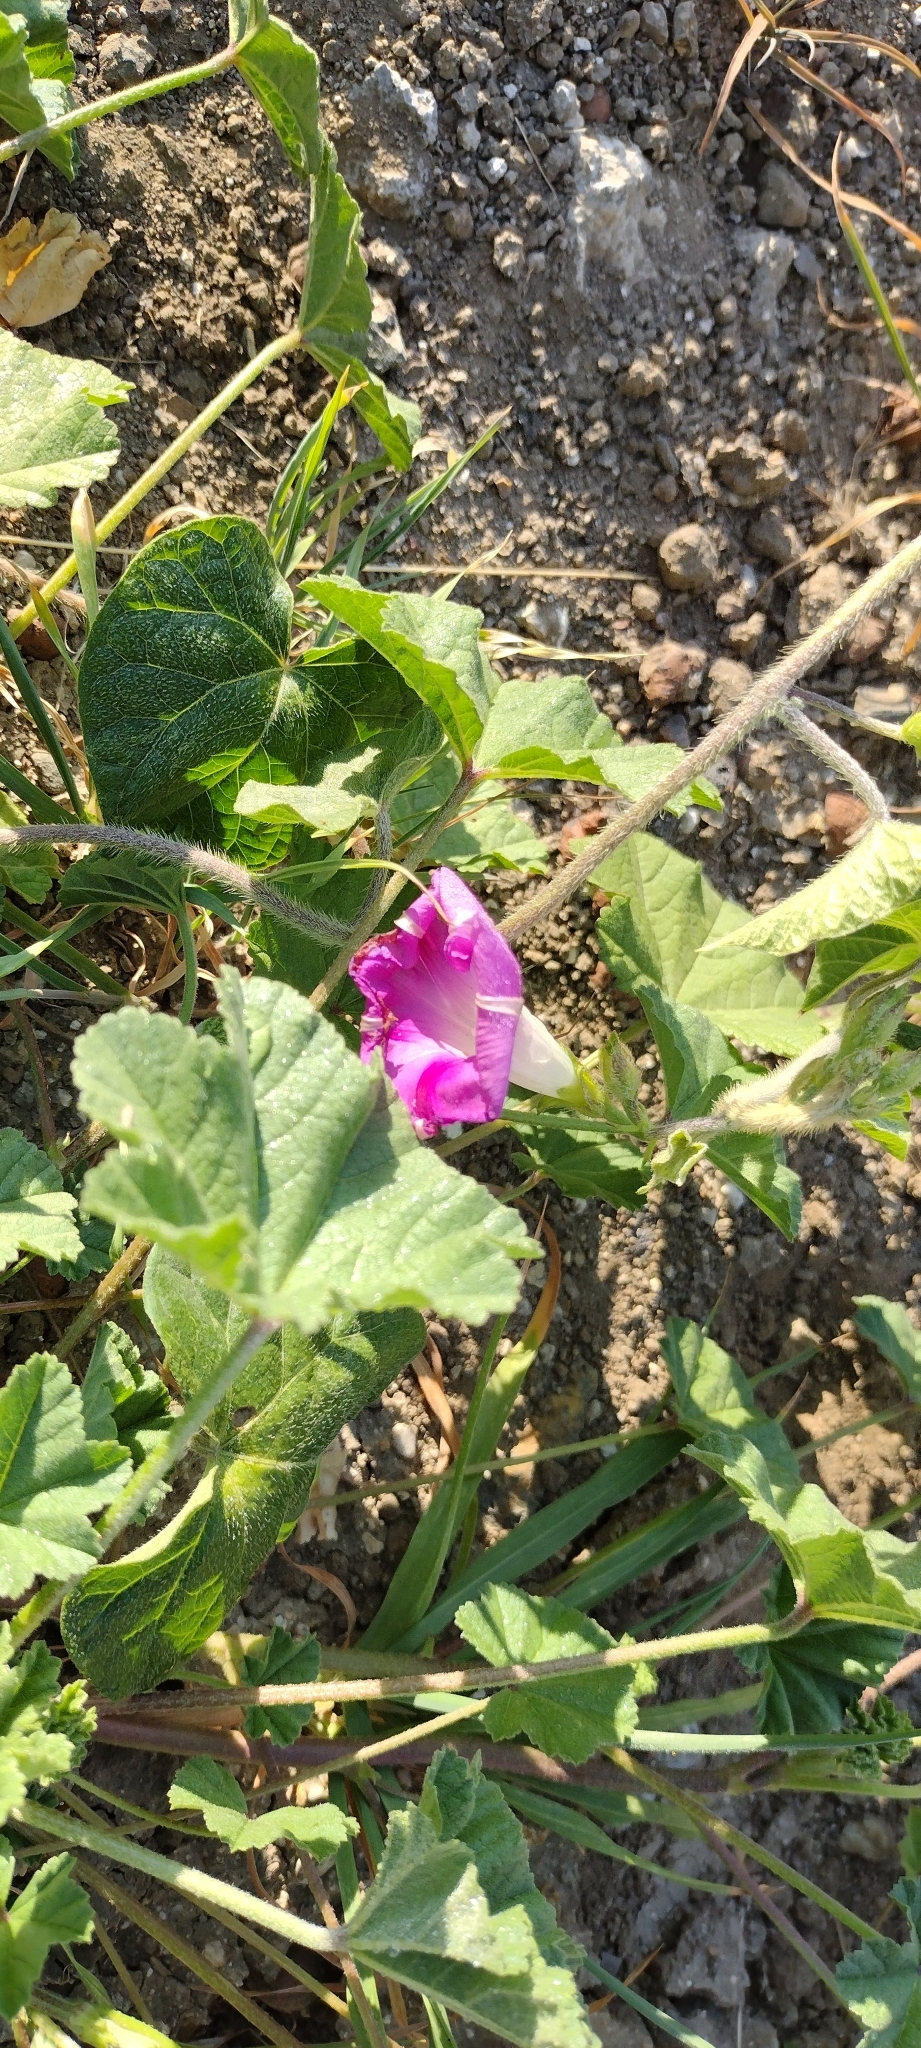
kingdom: Plantae
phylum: Tracheophyta
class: Magnoliopsida
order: Solanales
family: Convolvulaceae
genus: Ipomoea
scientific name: Ipomoea purpurea
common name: Common morning-glory
